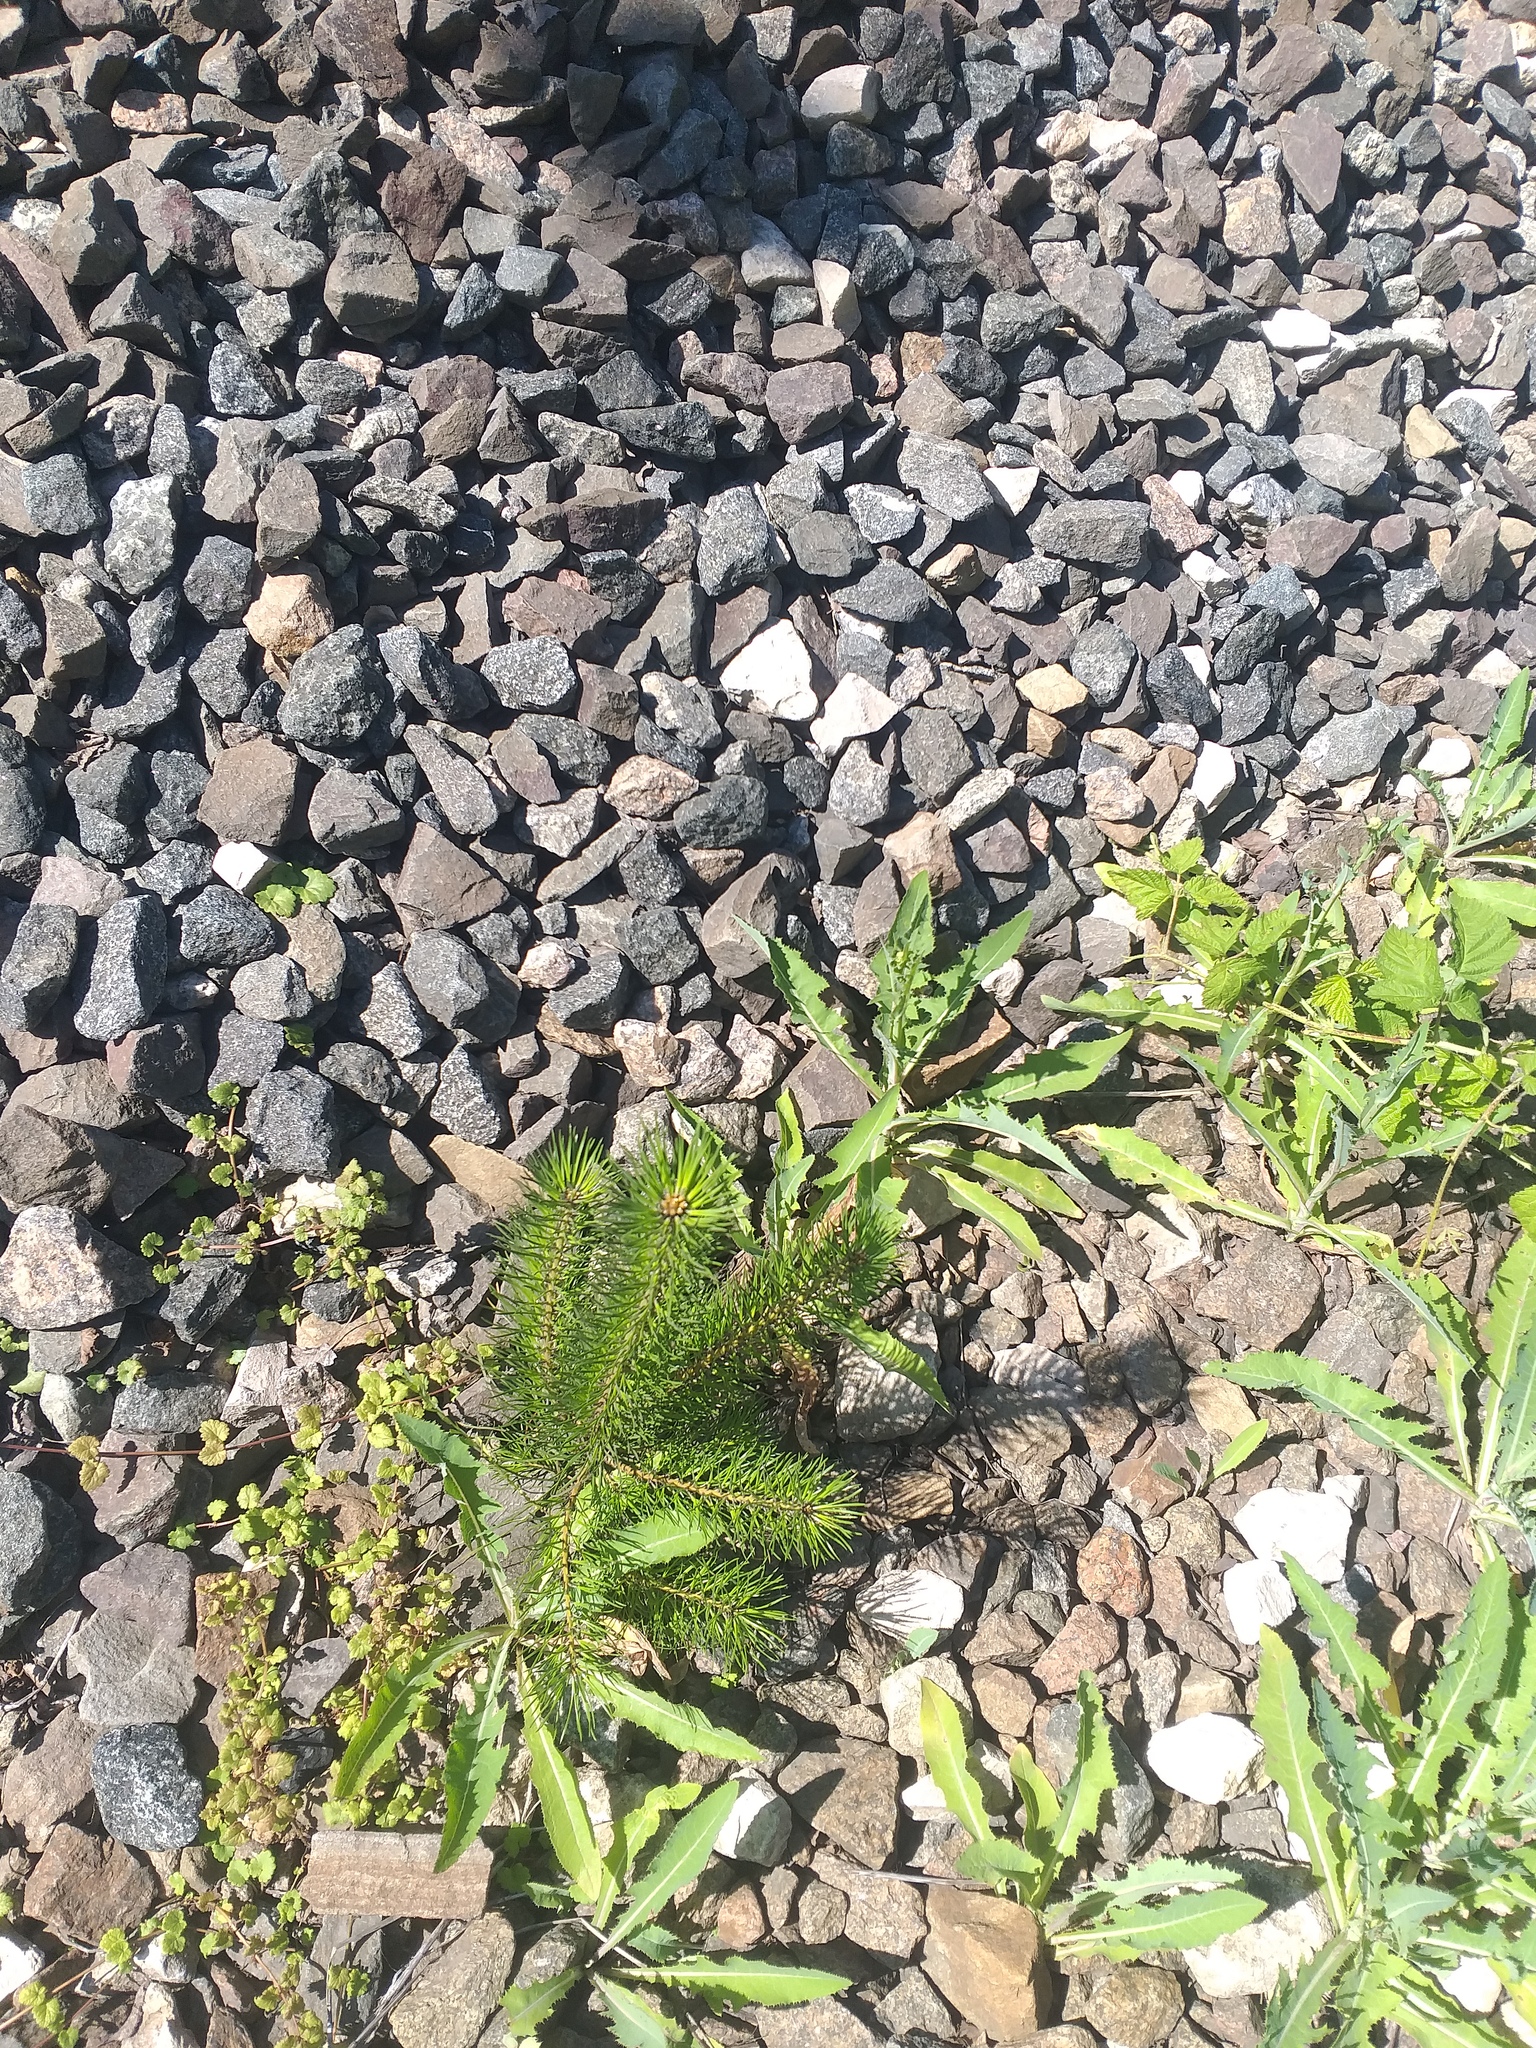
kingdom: Plantae
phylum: Tracheophyta
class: Pinopsida
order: Pinales
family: Pinaceae
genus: Pinus
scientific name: Pinus sylvestris
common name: Scots pine
